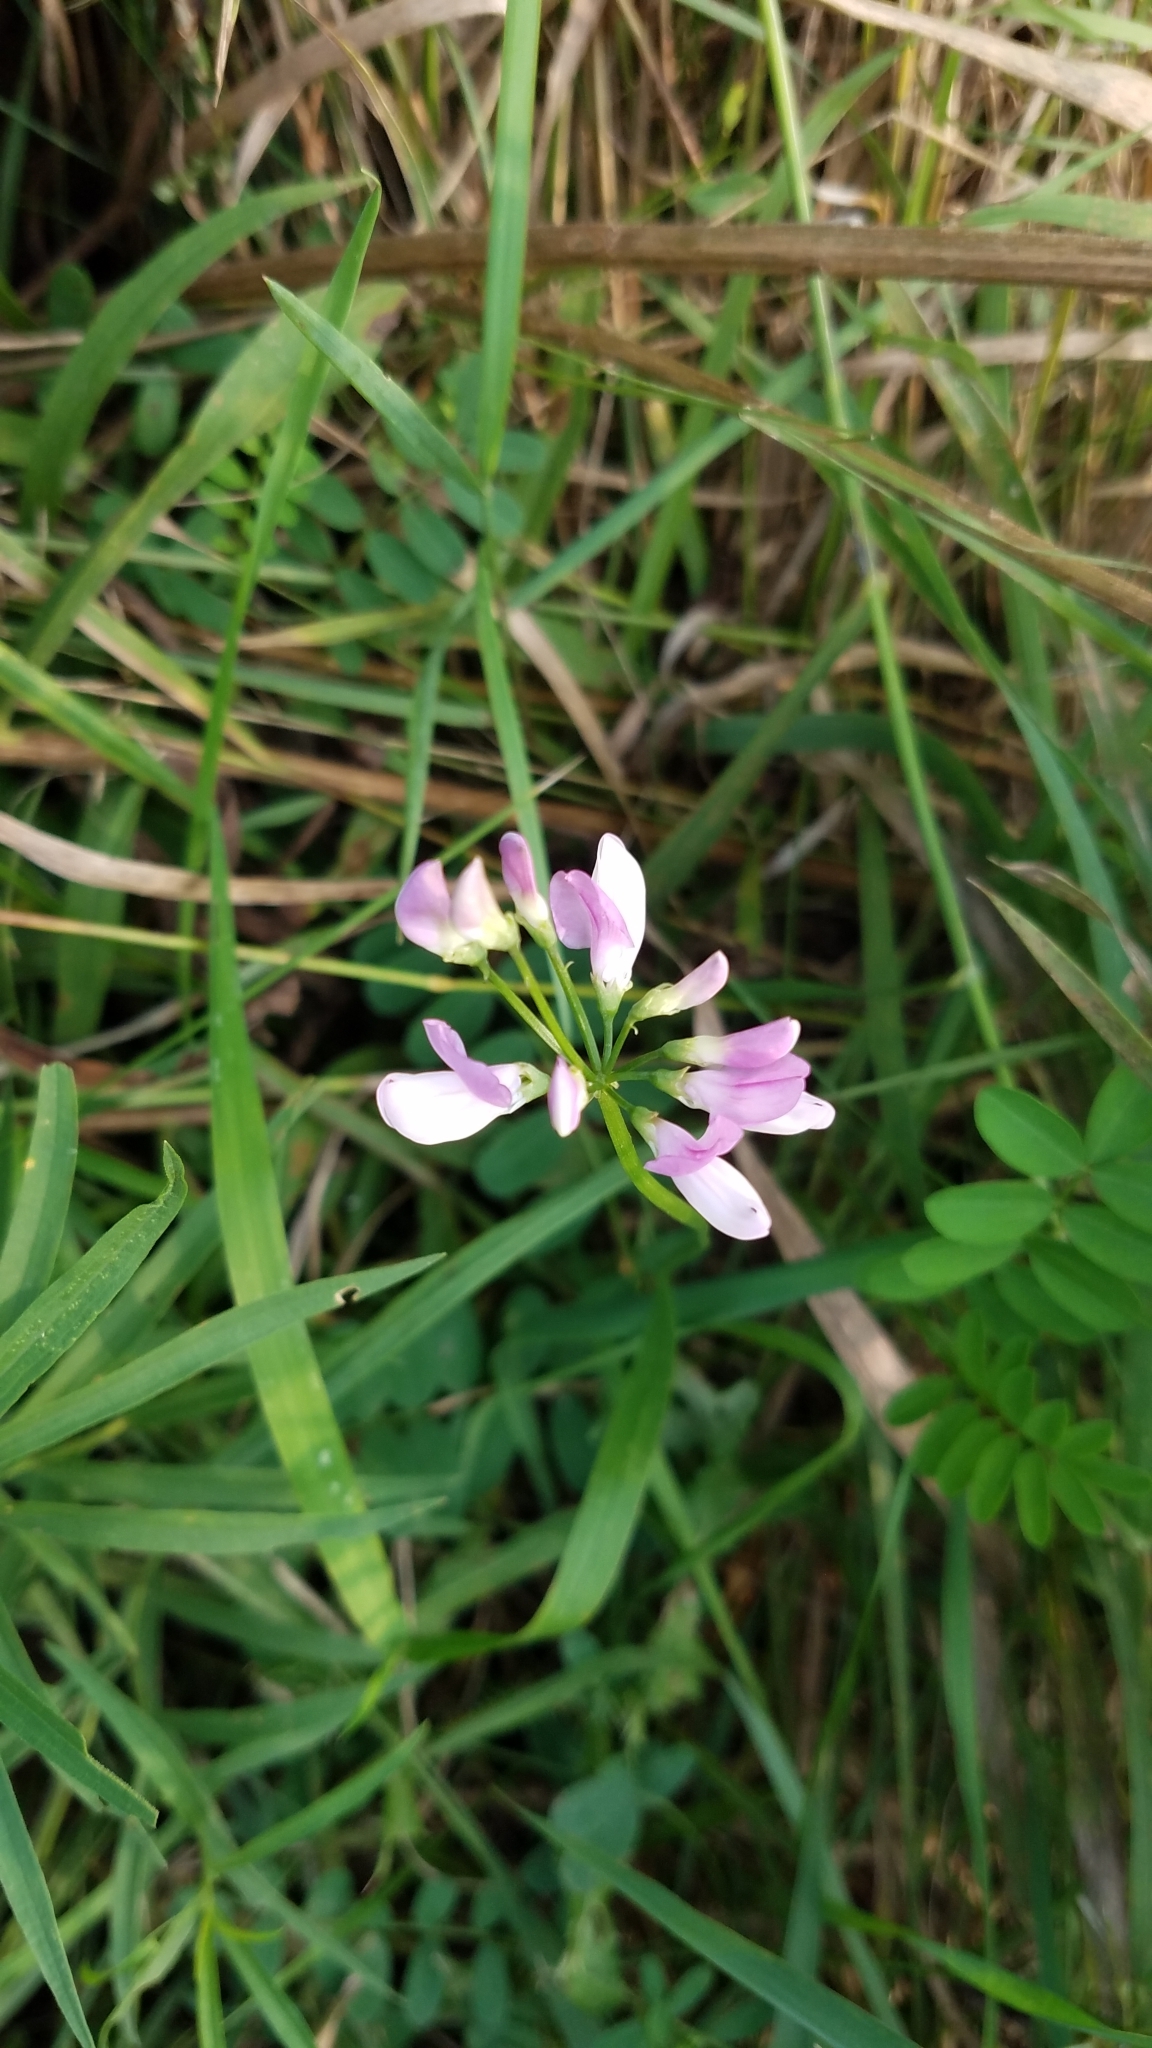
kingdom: Plantae
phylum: Tracheophyta
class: Magnoliopsida
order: Fabales
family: Fabaceae
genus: Coronilla
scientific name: Coronilla varia
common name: Crownvetch
